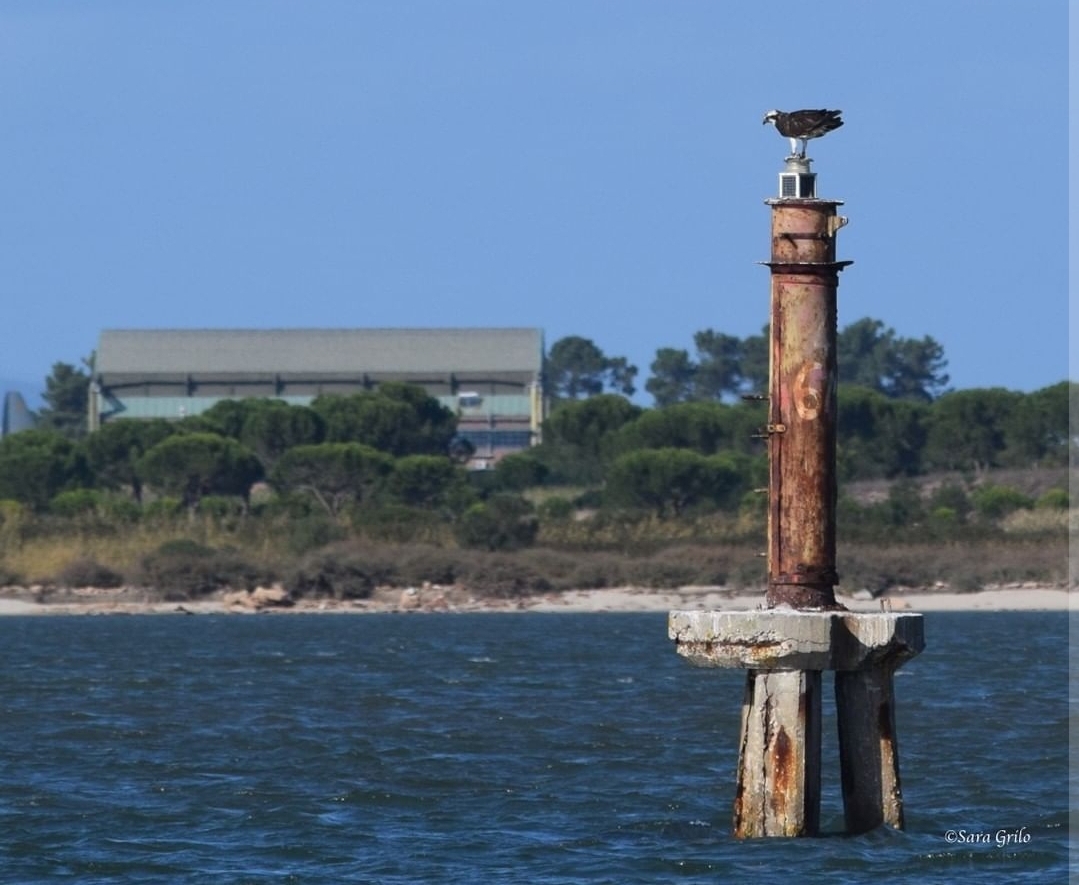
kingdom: Animalia
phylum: Chordata
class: Aves
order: Accipitriformes
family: Pandionidae
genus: Pandion
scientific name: Pandion haliaetus
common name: Osprey
